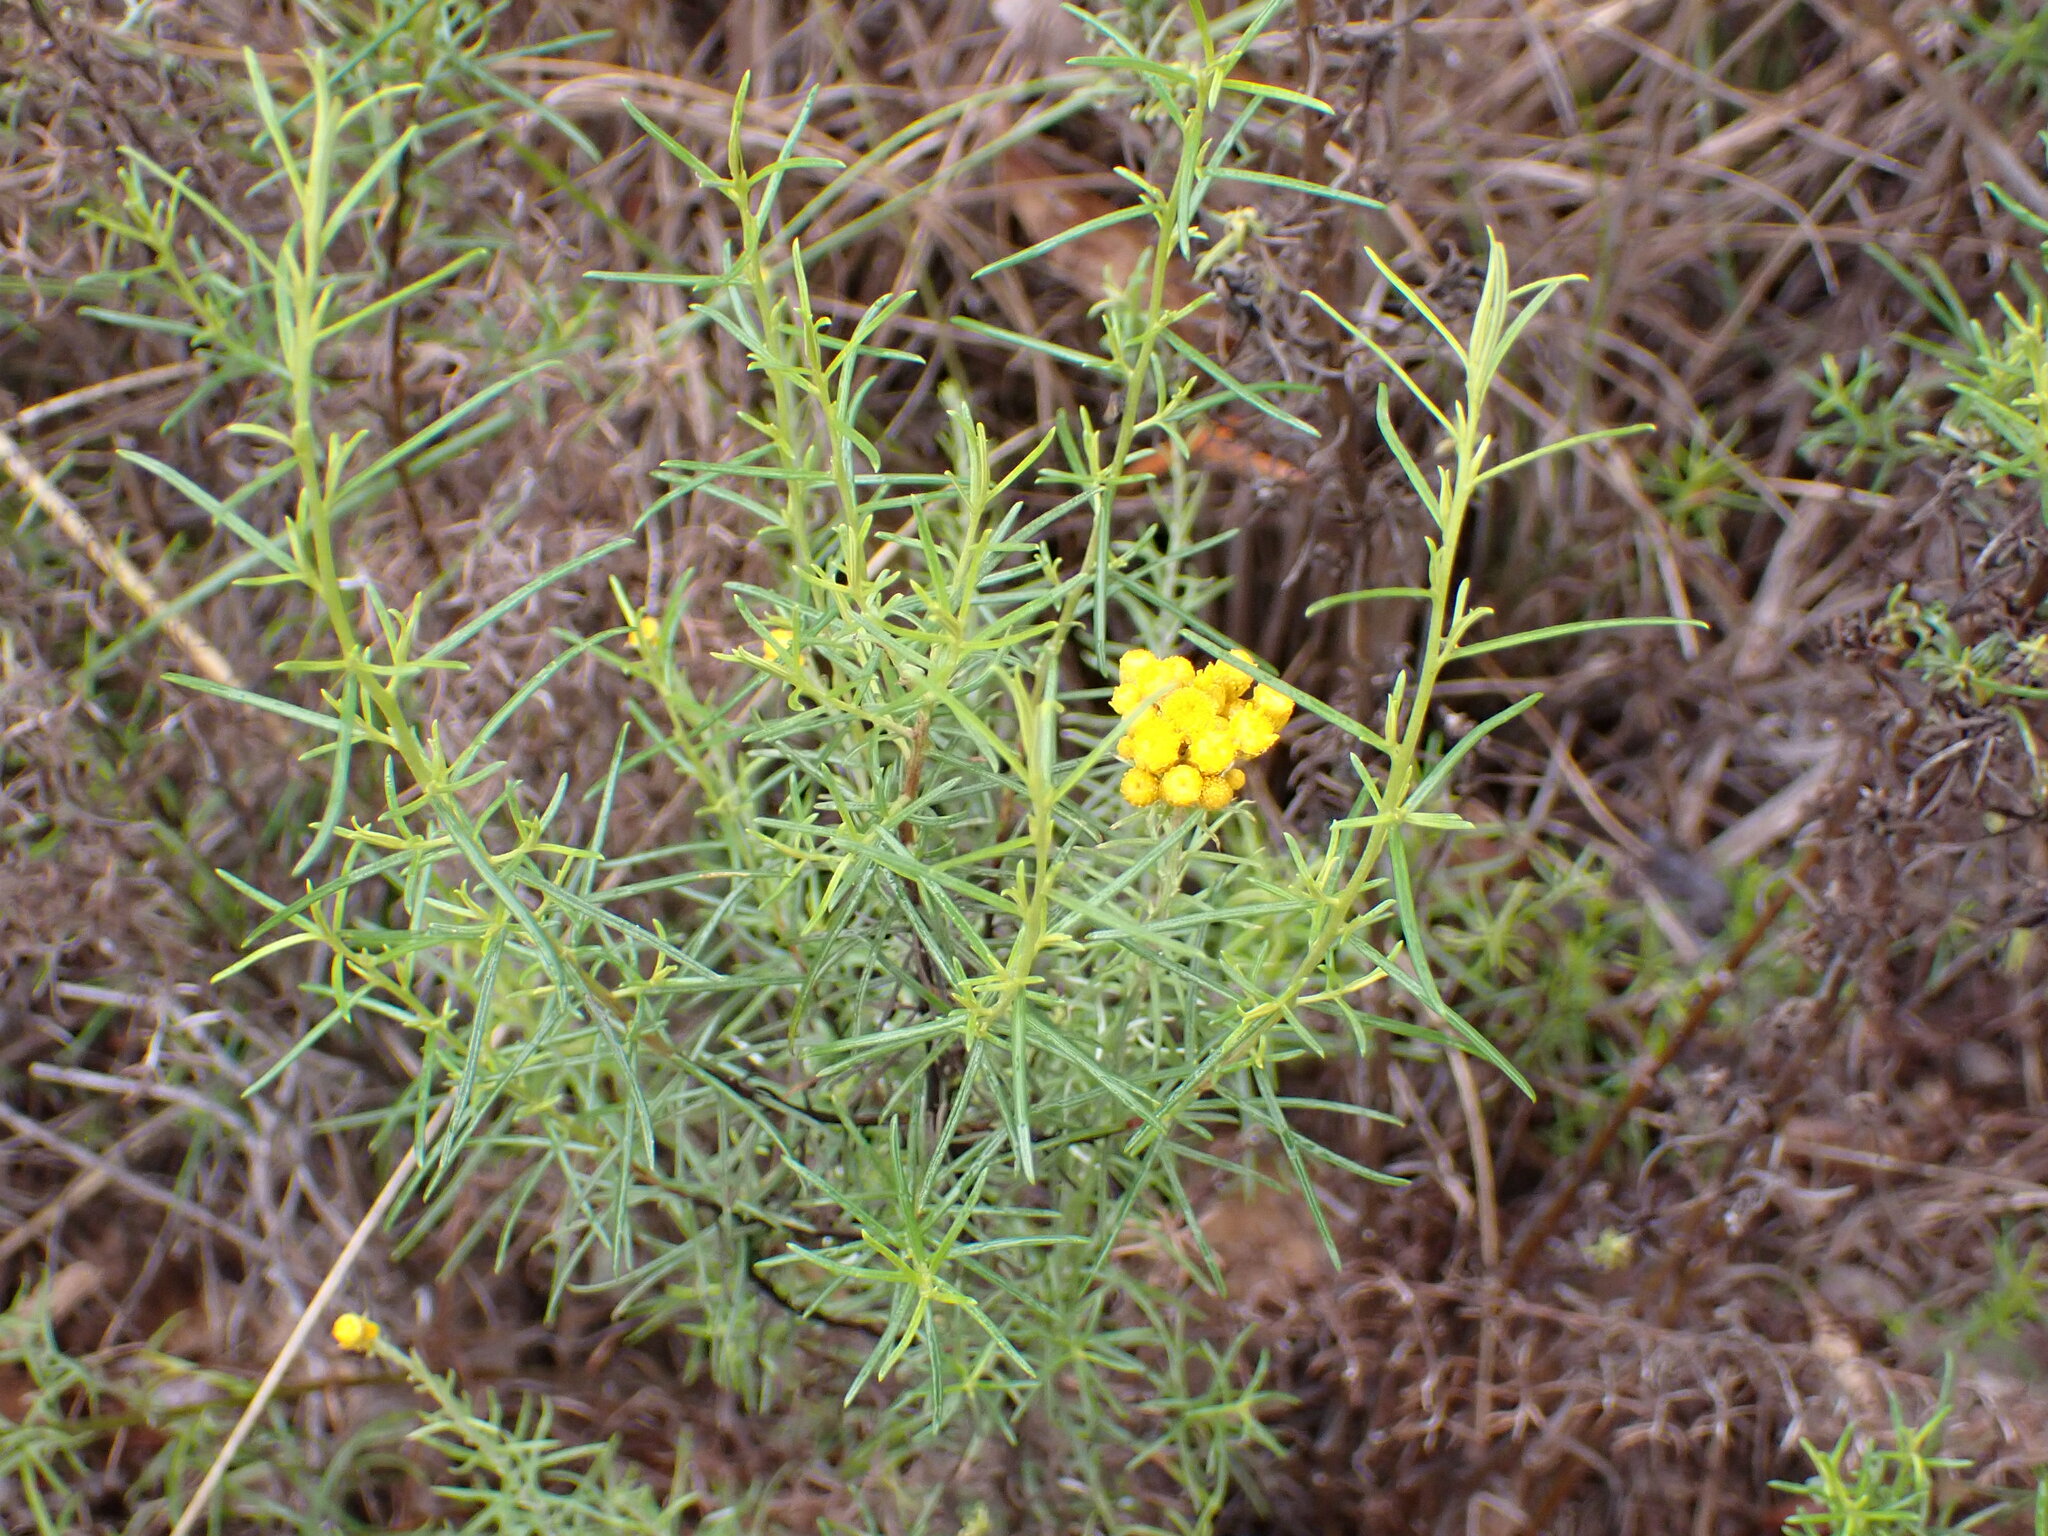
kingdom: Plantae
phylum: Tracheophyta
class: Magnoliopsida
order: Asterales
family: Asteraceae
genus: Chrysocephalum
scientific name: Chrysocephalum semipapposum
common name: Clustered everlasting
